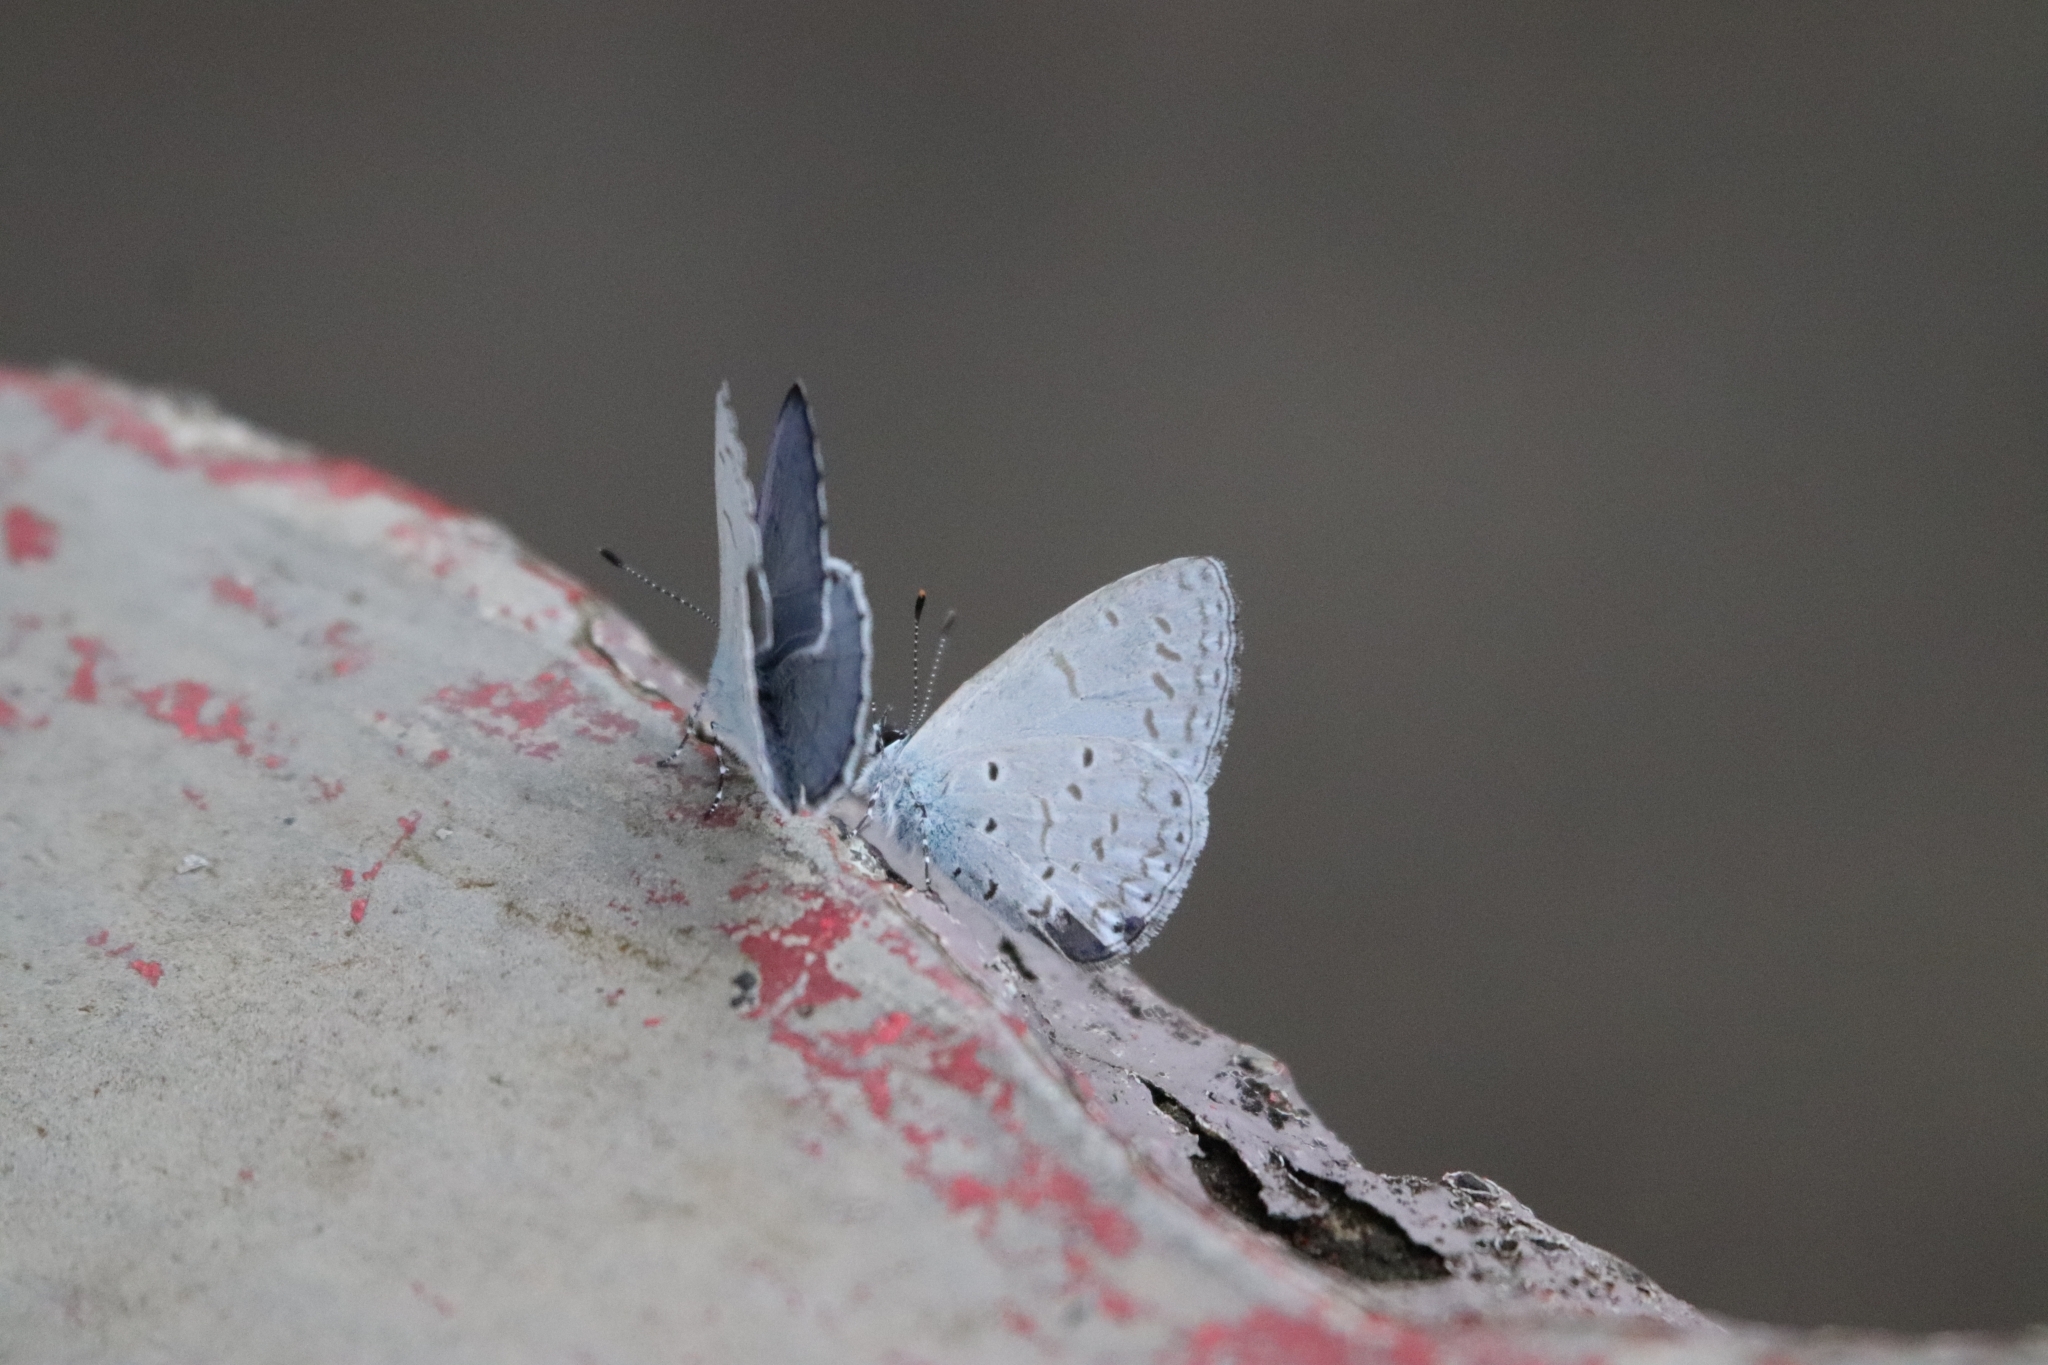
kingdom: Animalia
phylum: Arthropoda
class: Insecta
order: Lepidoptera
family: Lycaenidae
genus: Udara
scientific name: Udara dilectus
